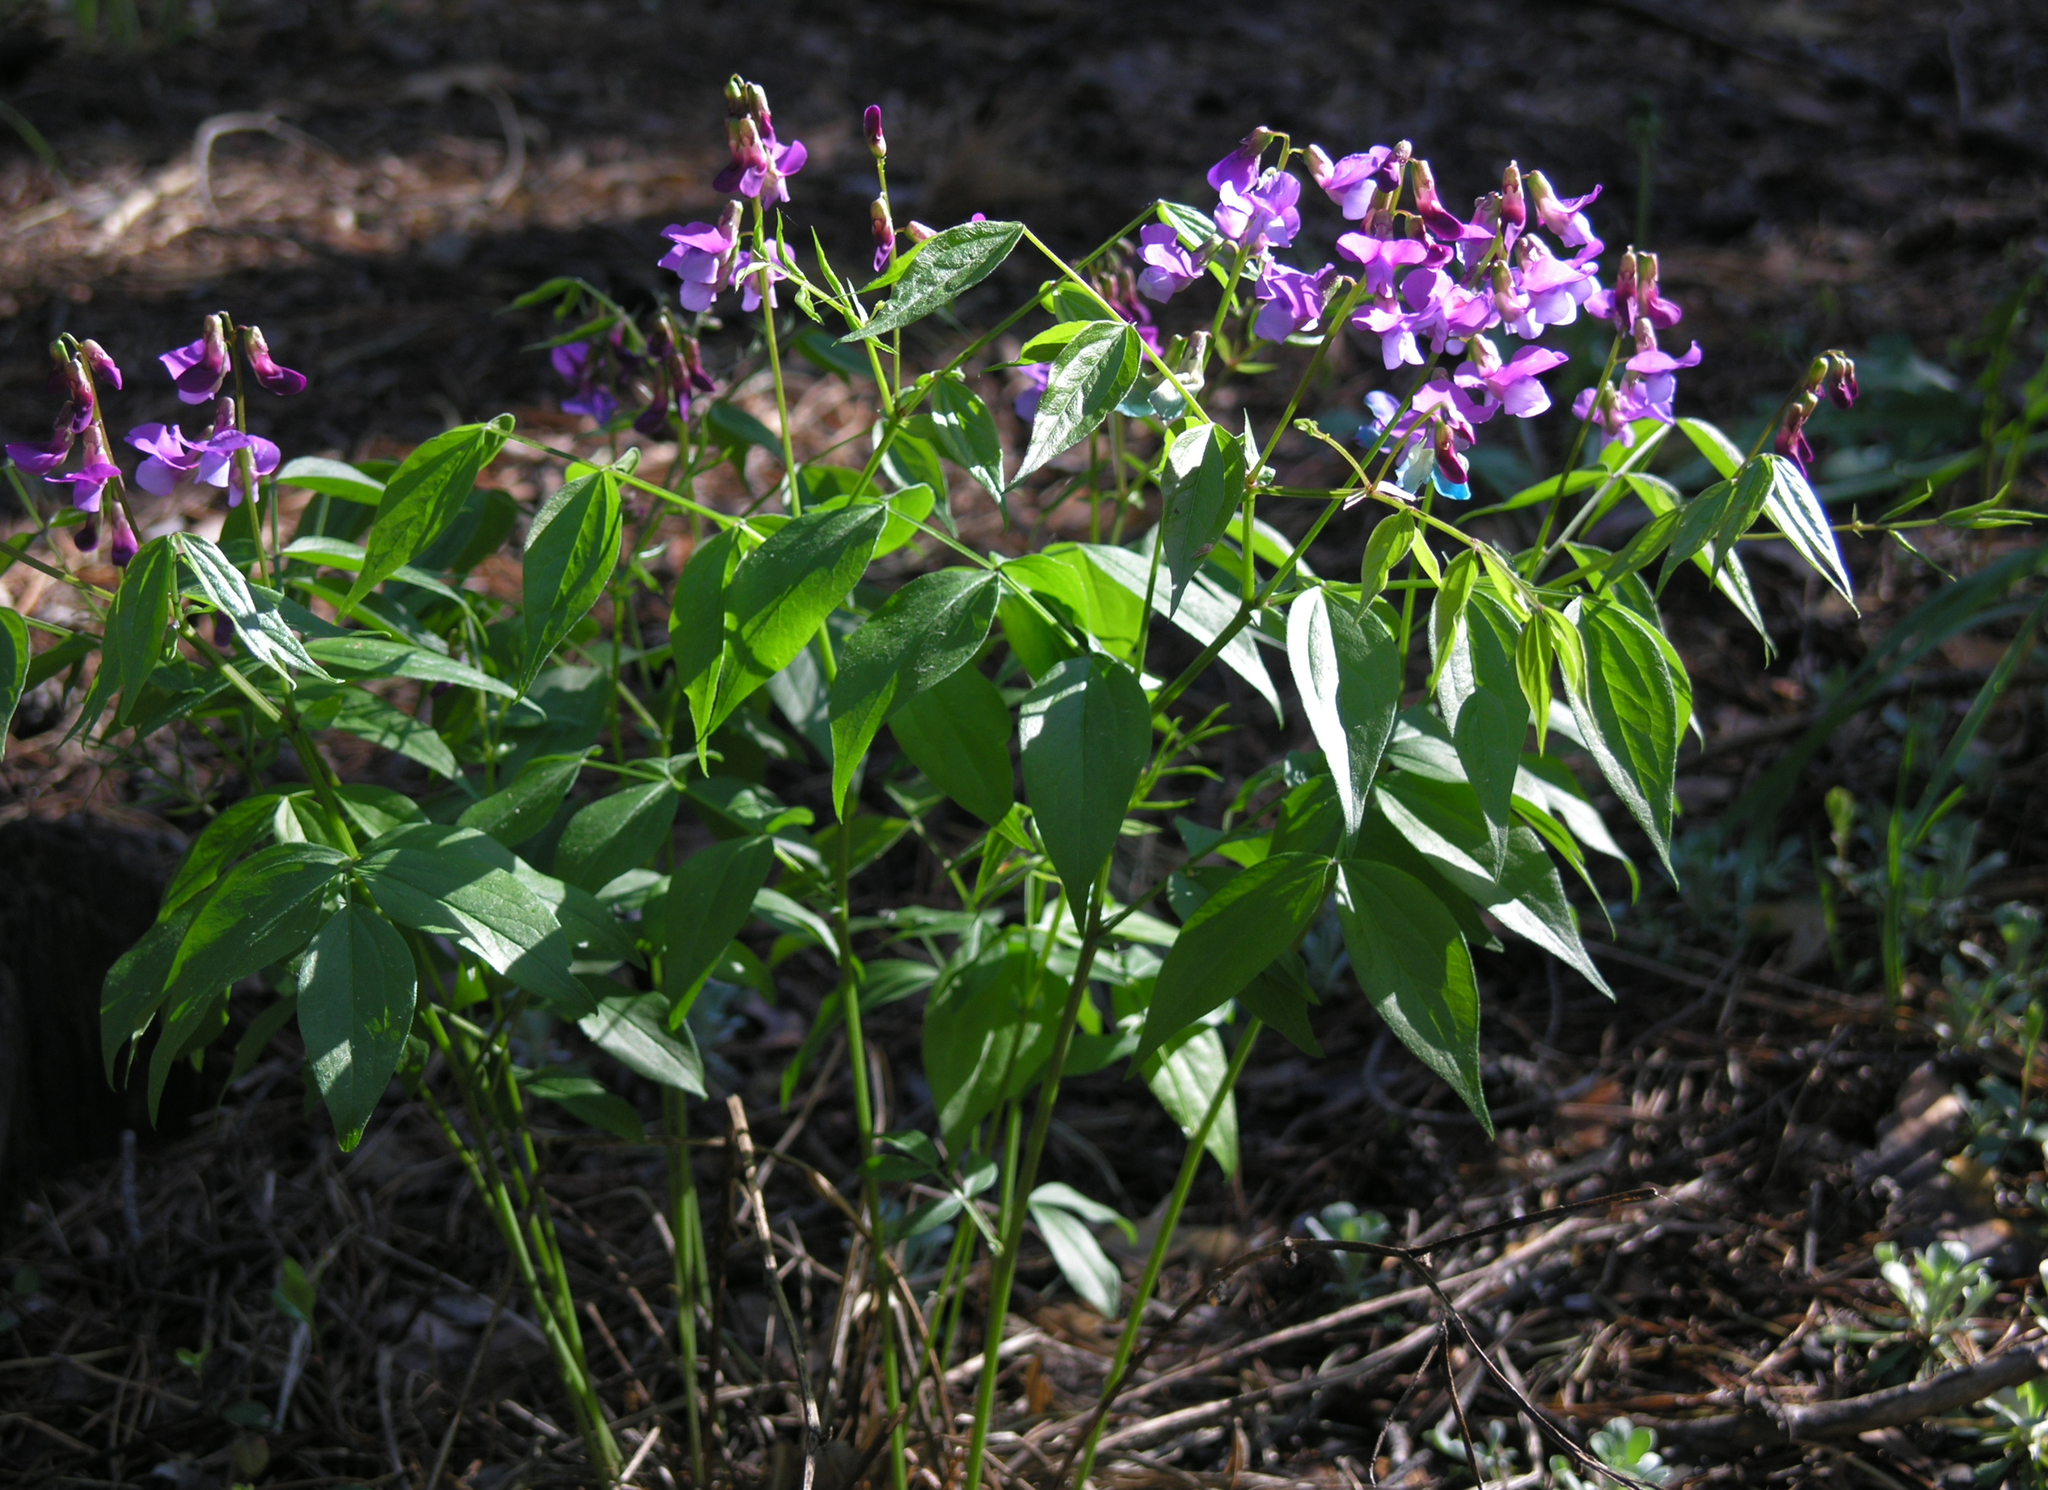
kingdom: Plantae
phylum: Tracheophyta
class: Magnoliopsida
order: Fabales
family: Fabaceae
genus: Lathyrus
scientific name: Lathyrus vernus
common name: Spring pea
